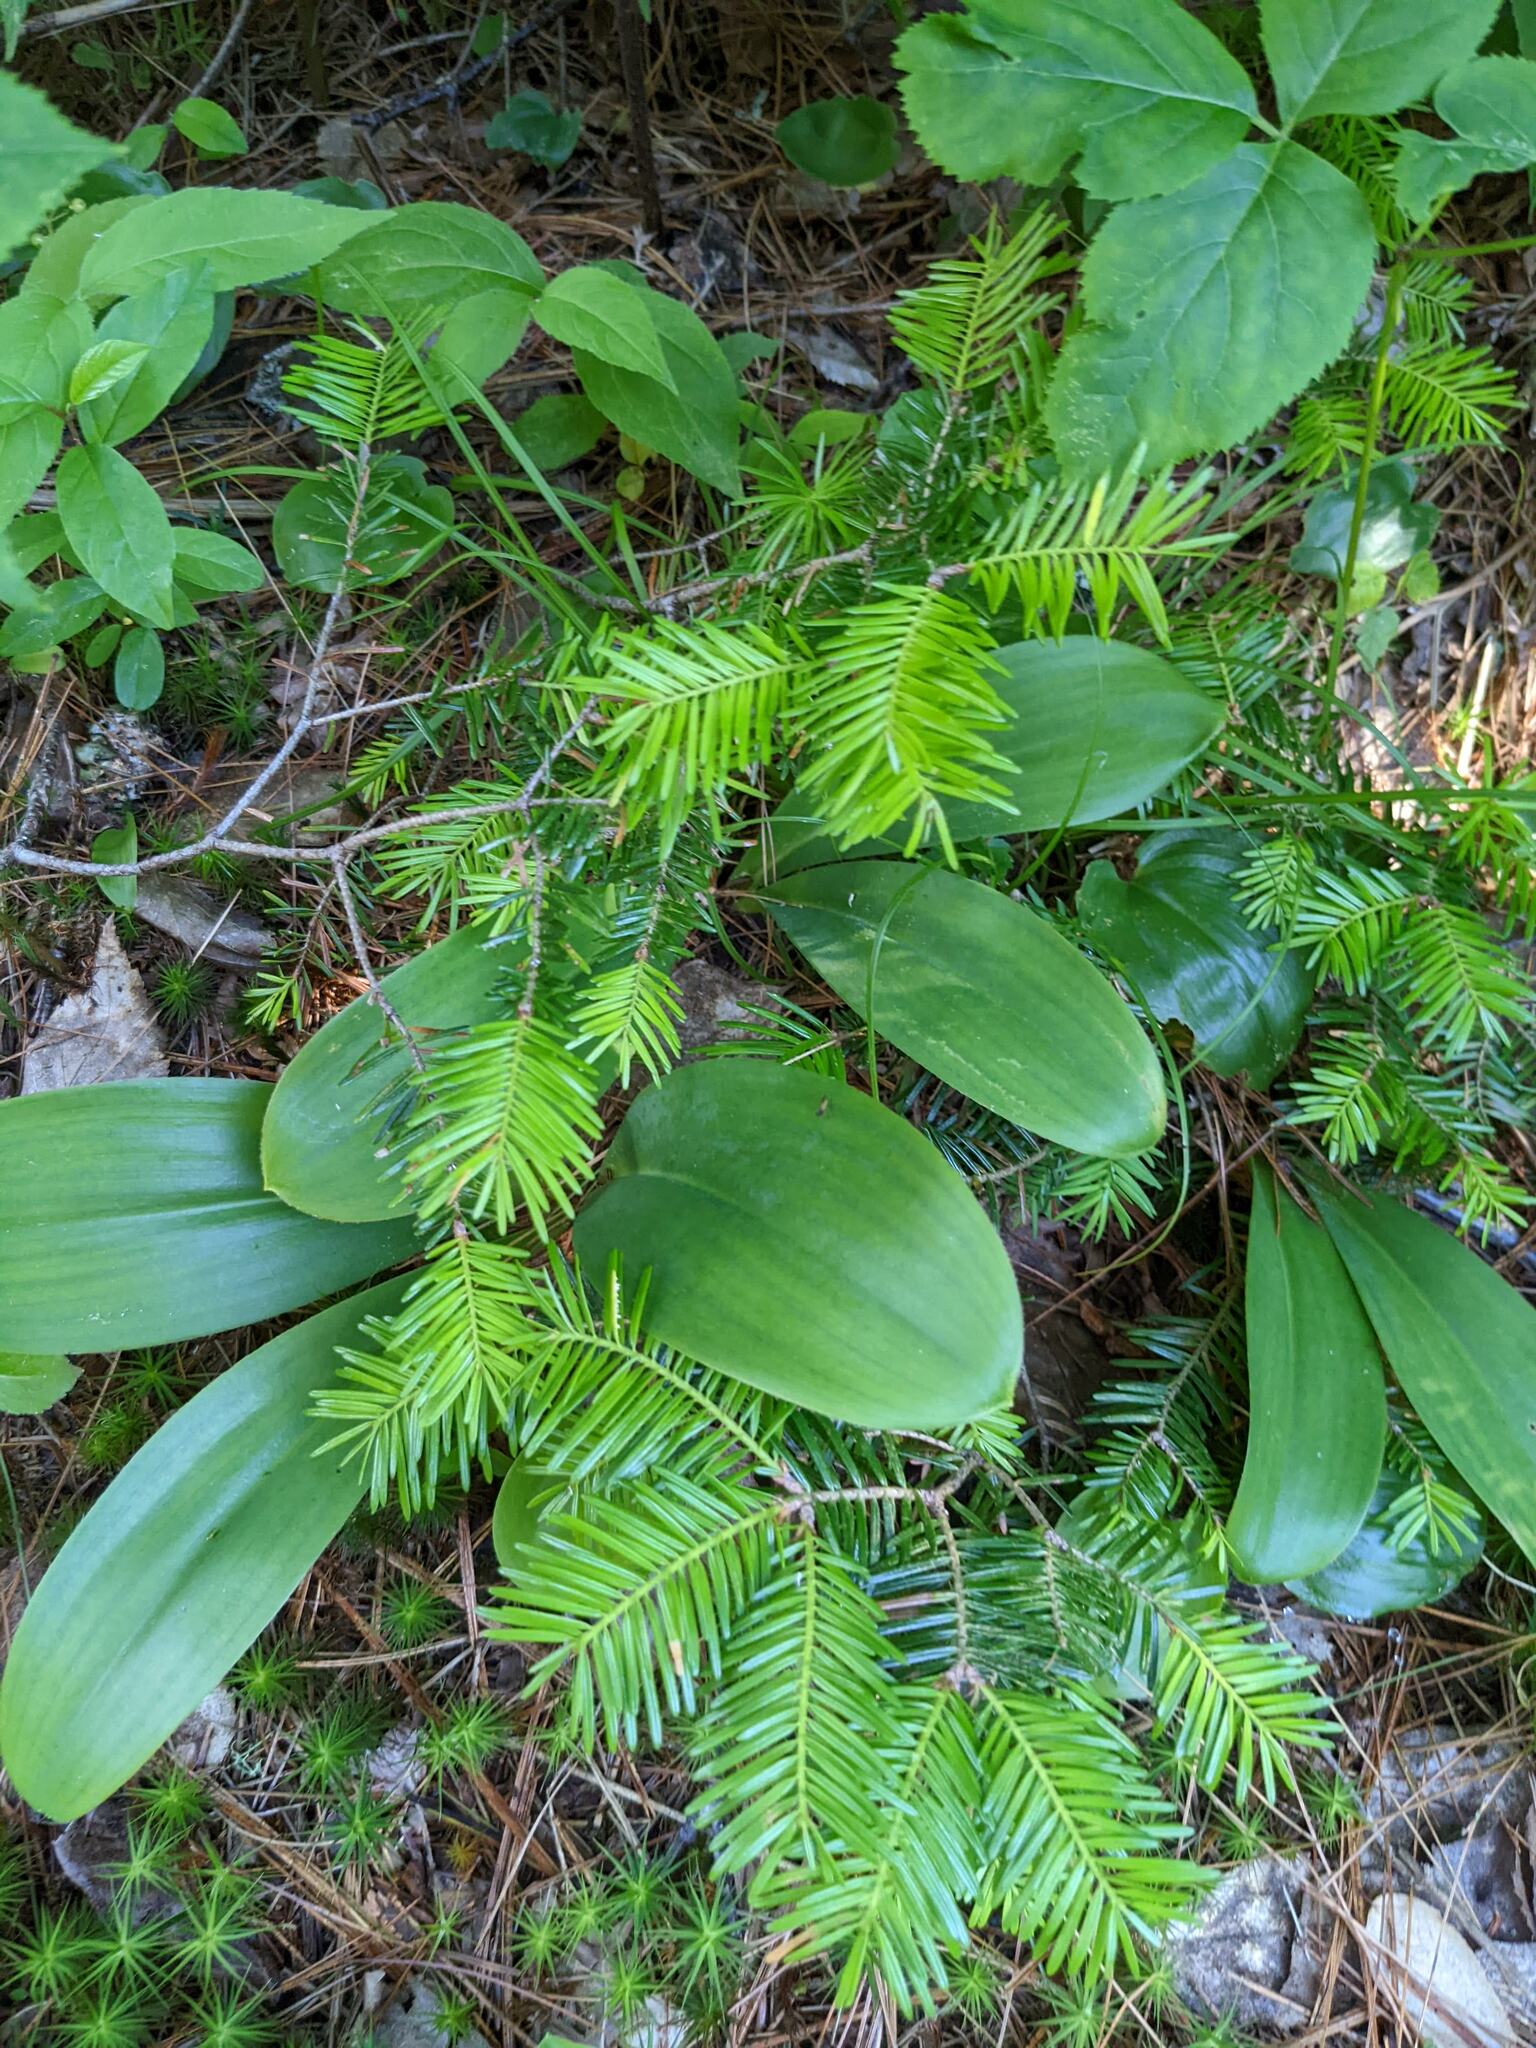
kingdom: Plantae
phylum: Tracheophyta
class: Liliopsida
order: Liliales
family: Liliaceae
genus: Clintonia
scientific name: Clintonia borealis
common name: Yellow clintonia
